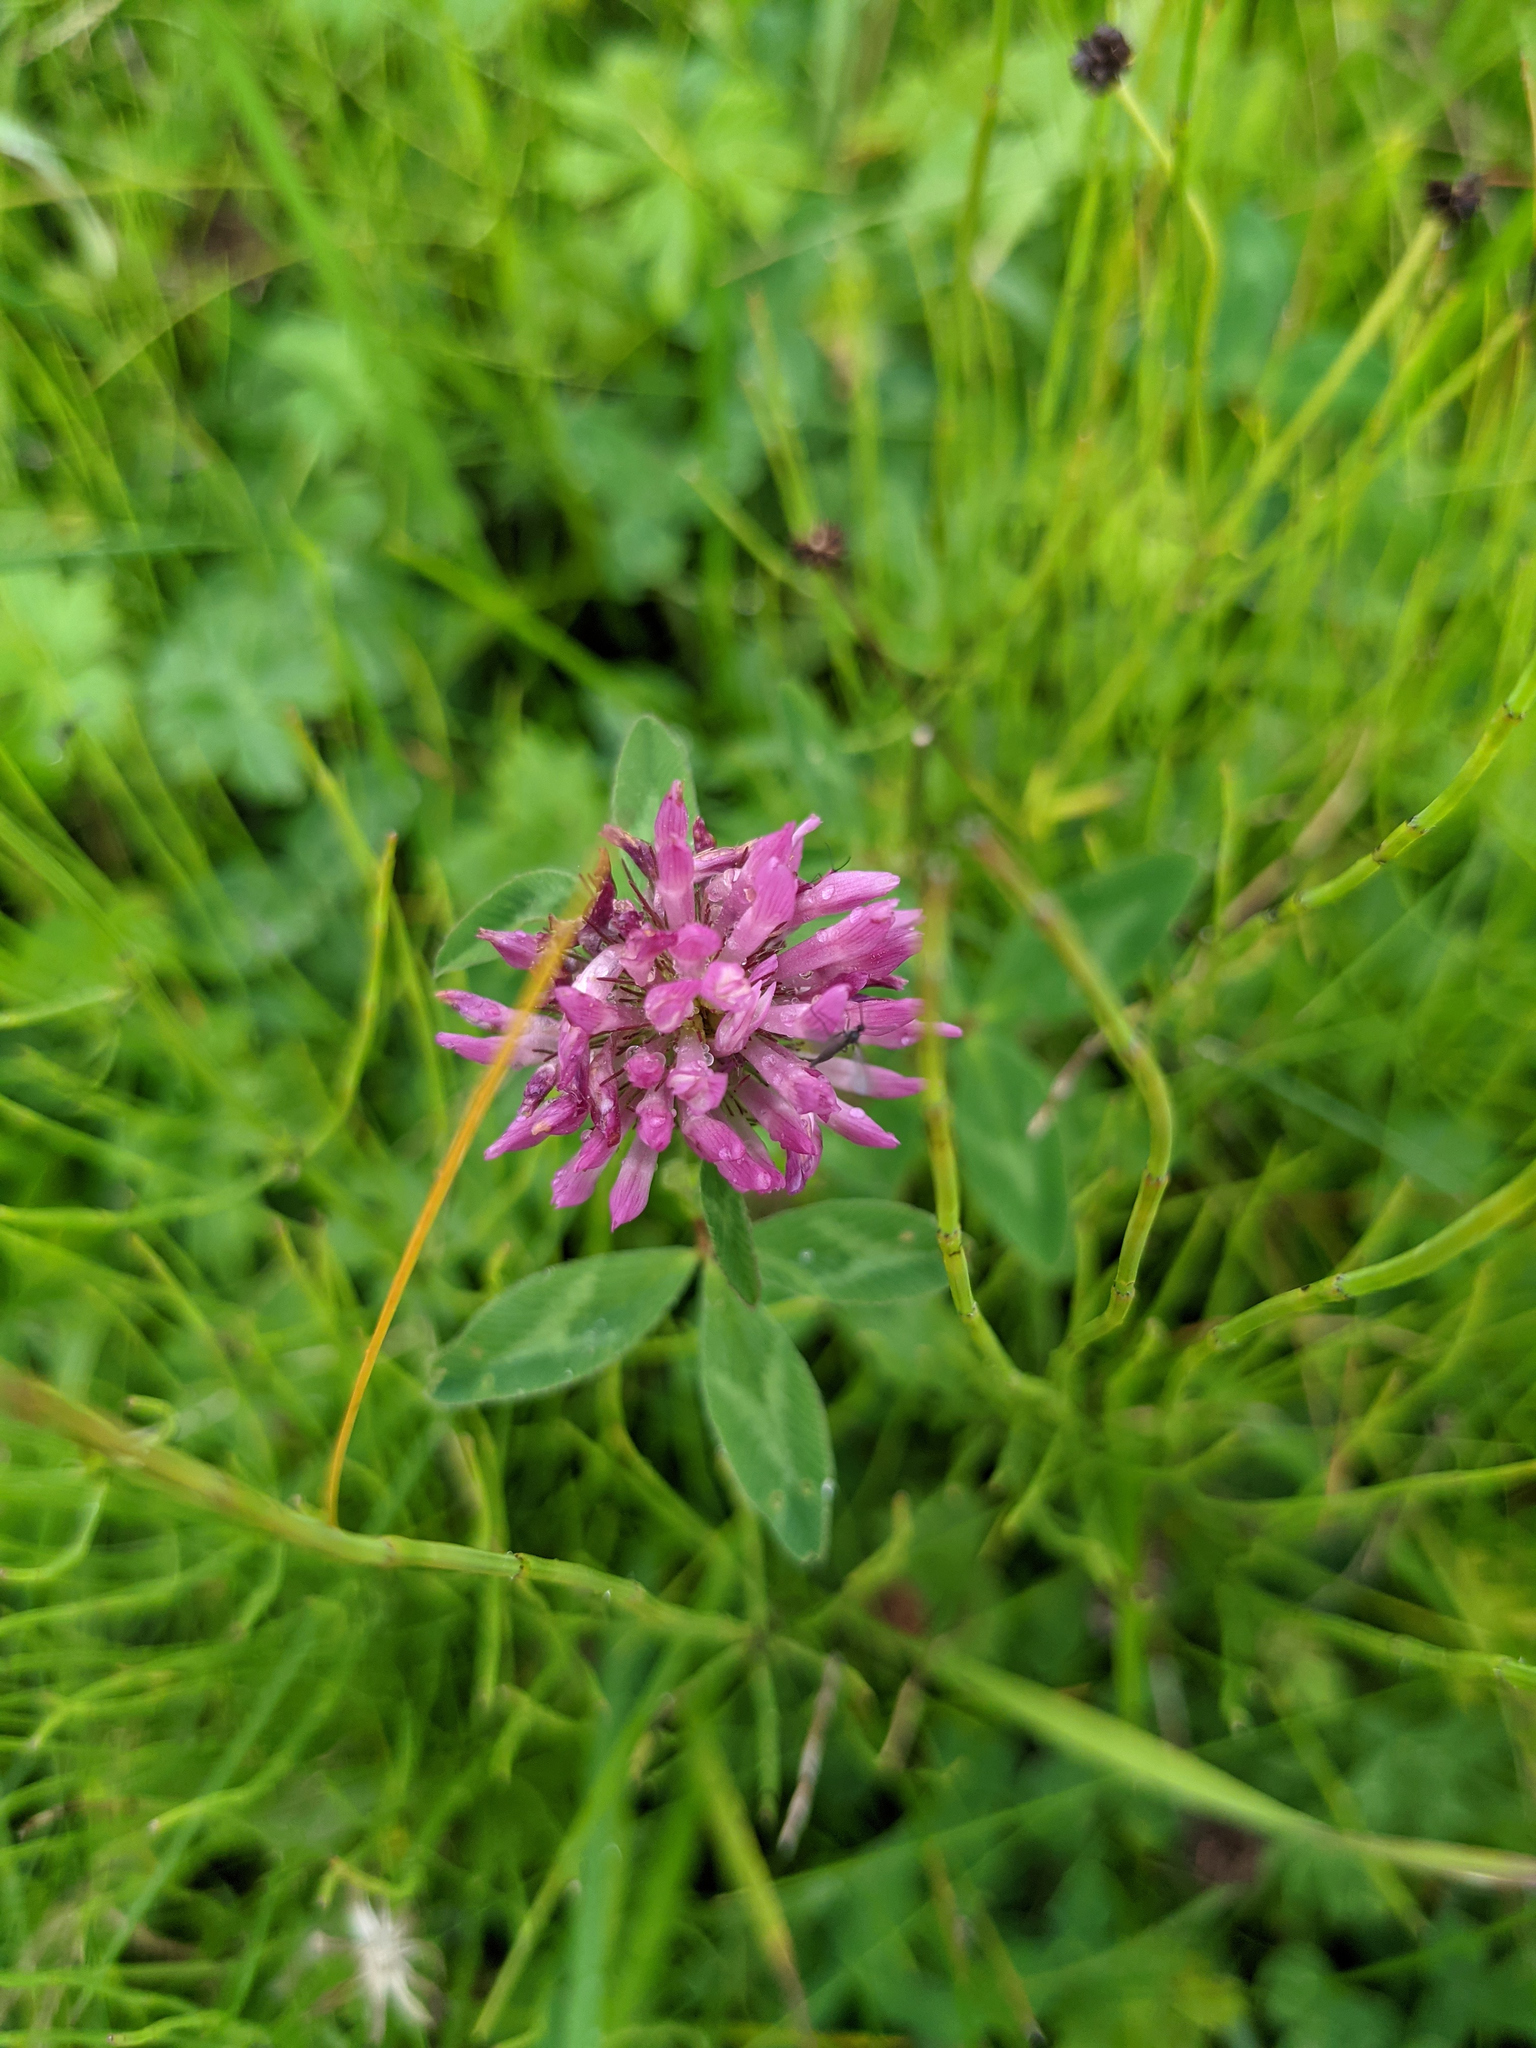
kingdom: Plantae
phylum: Tracheophyta
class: Magnoliopsida
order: Fabales
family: Fabaceae
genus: Trifolium
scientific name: Trifolium pratense
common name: Red clover
